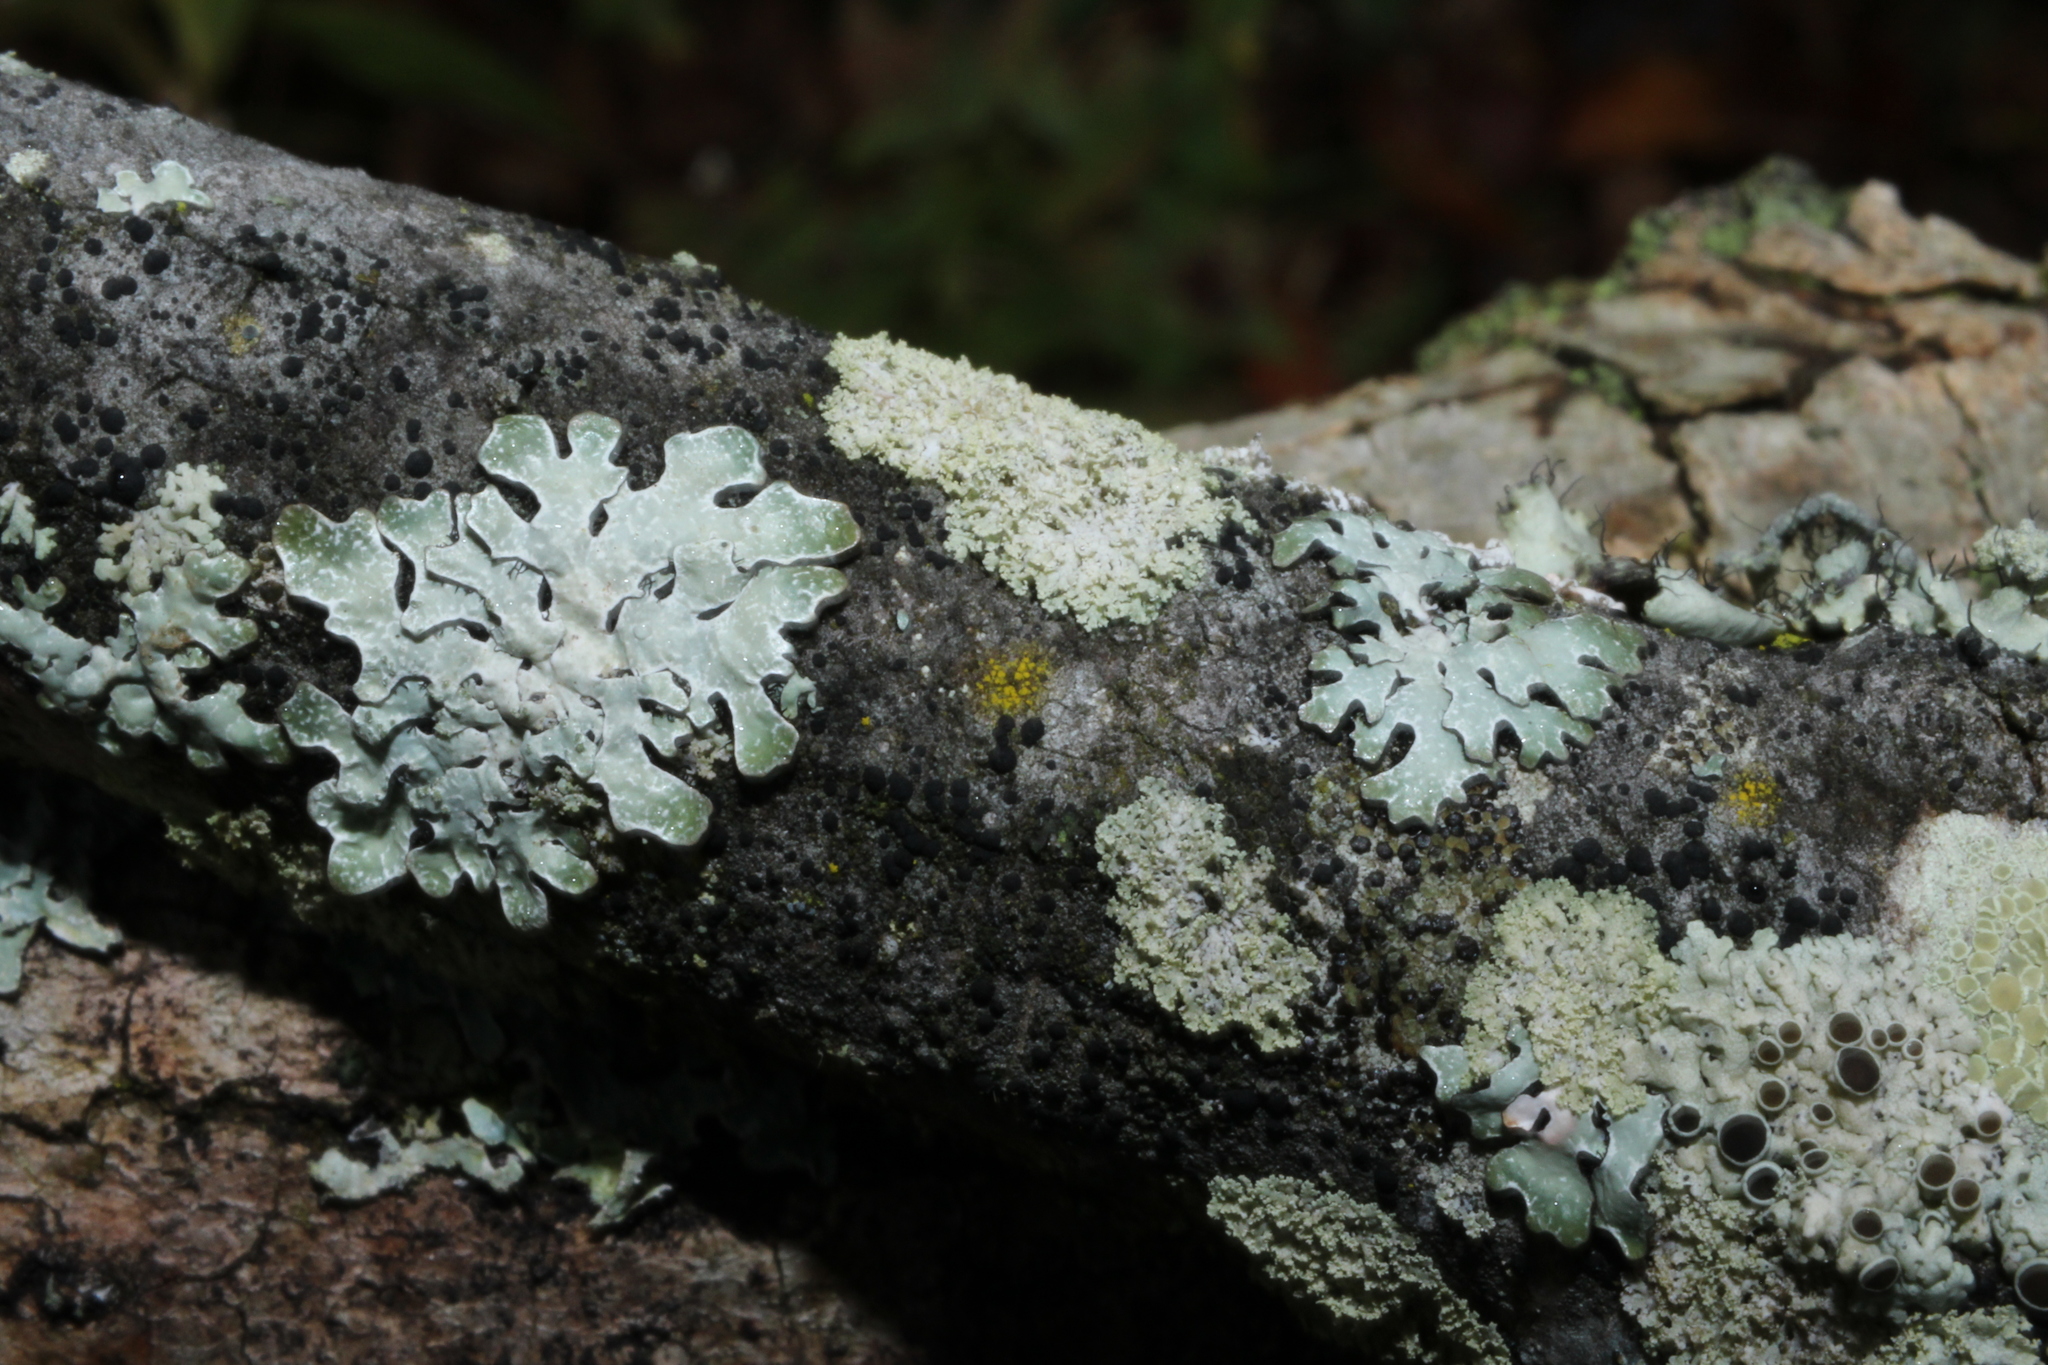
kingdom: Fungi
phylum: Ascomycota
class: Lecanoromycetes
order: Caliciales
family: Physciaceae
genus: Physcia
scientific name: Physcia millegrana
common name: Rosette lichen
